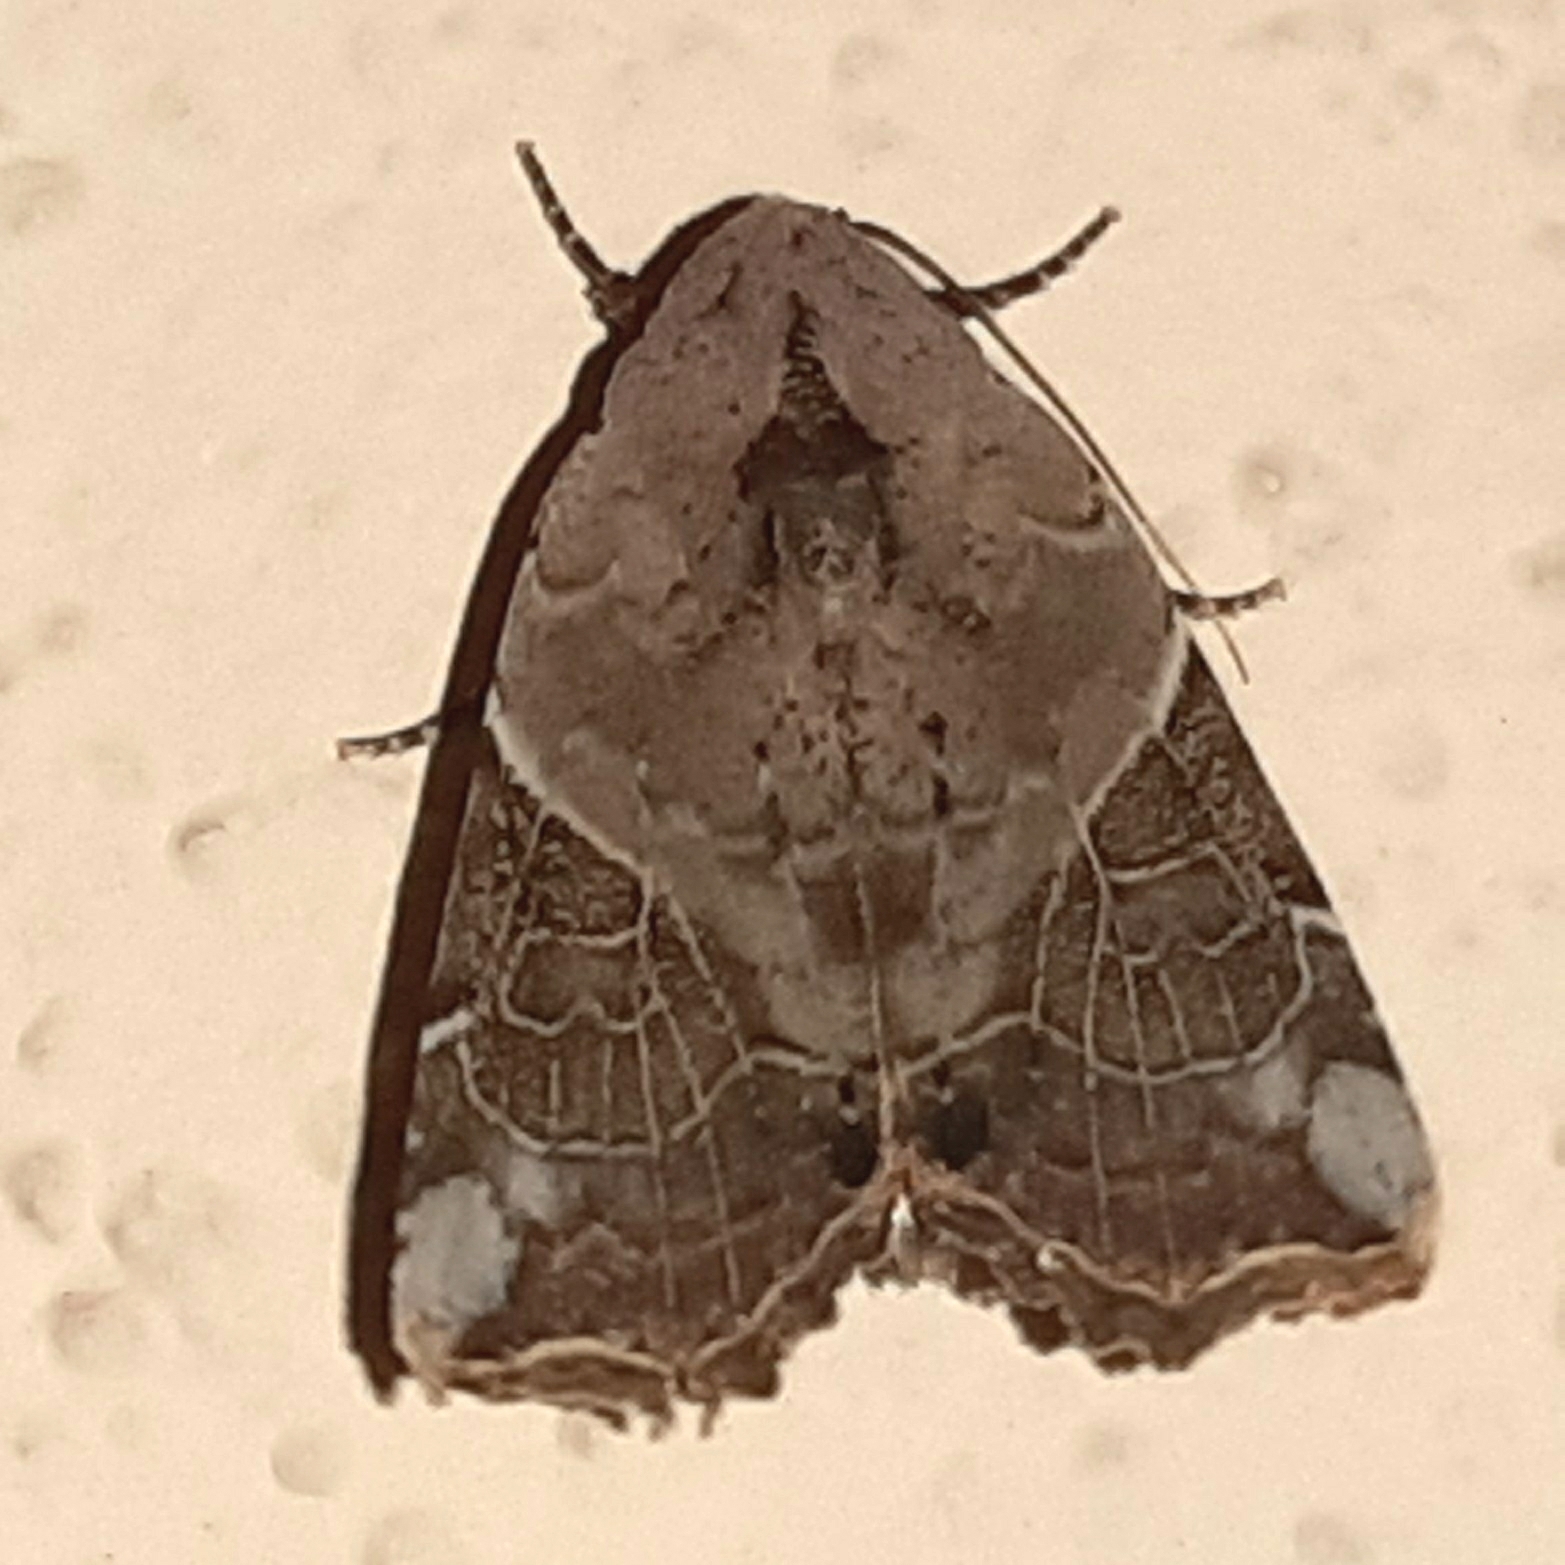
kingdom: Animalia
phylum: Arthropoda
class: Insecta
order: Lepidoptera
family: Noctuidae
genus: Gonodes
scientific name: Gonodes liquida
